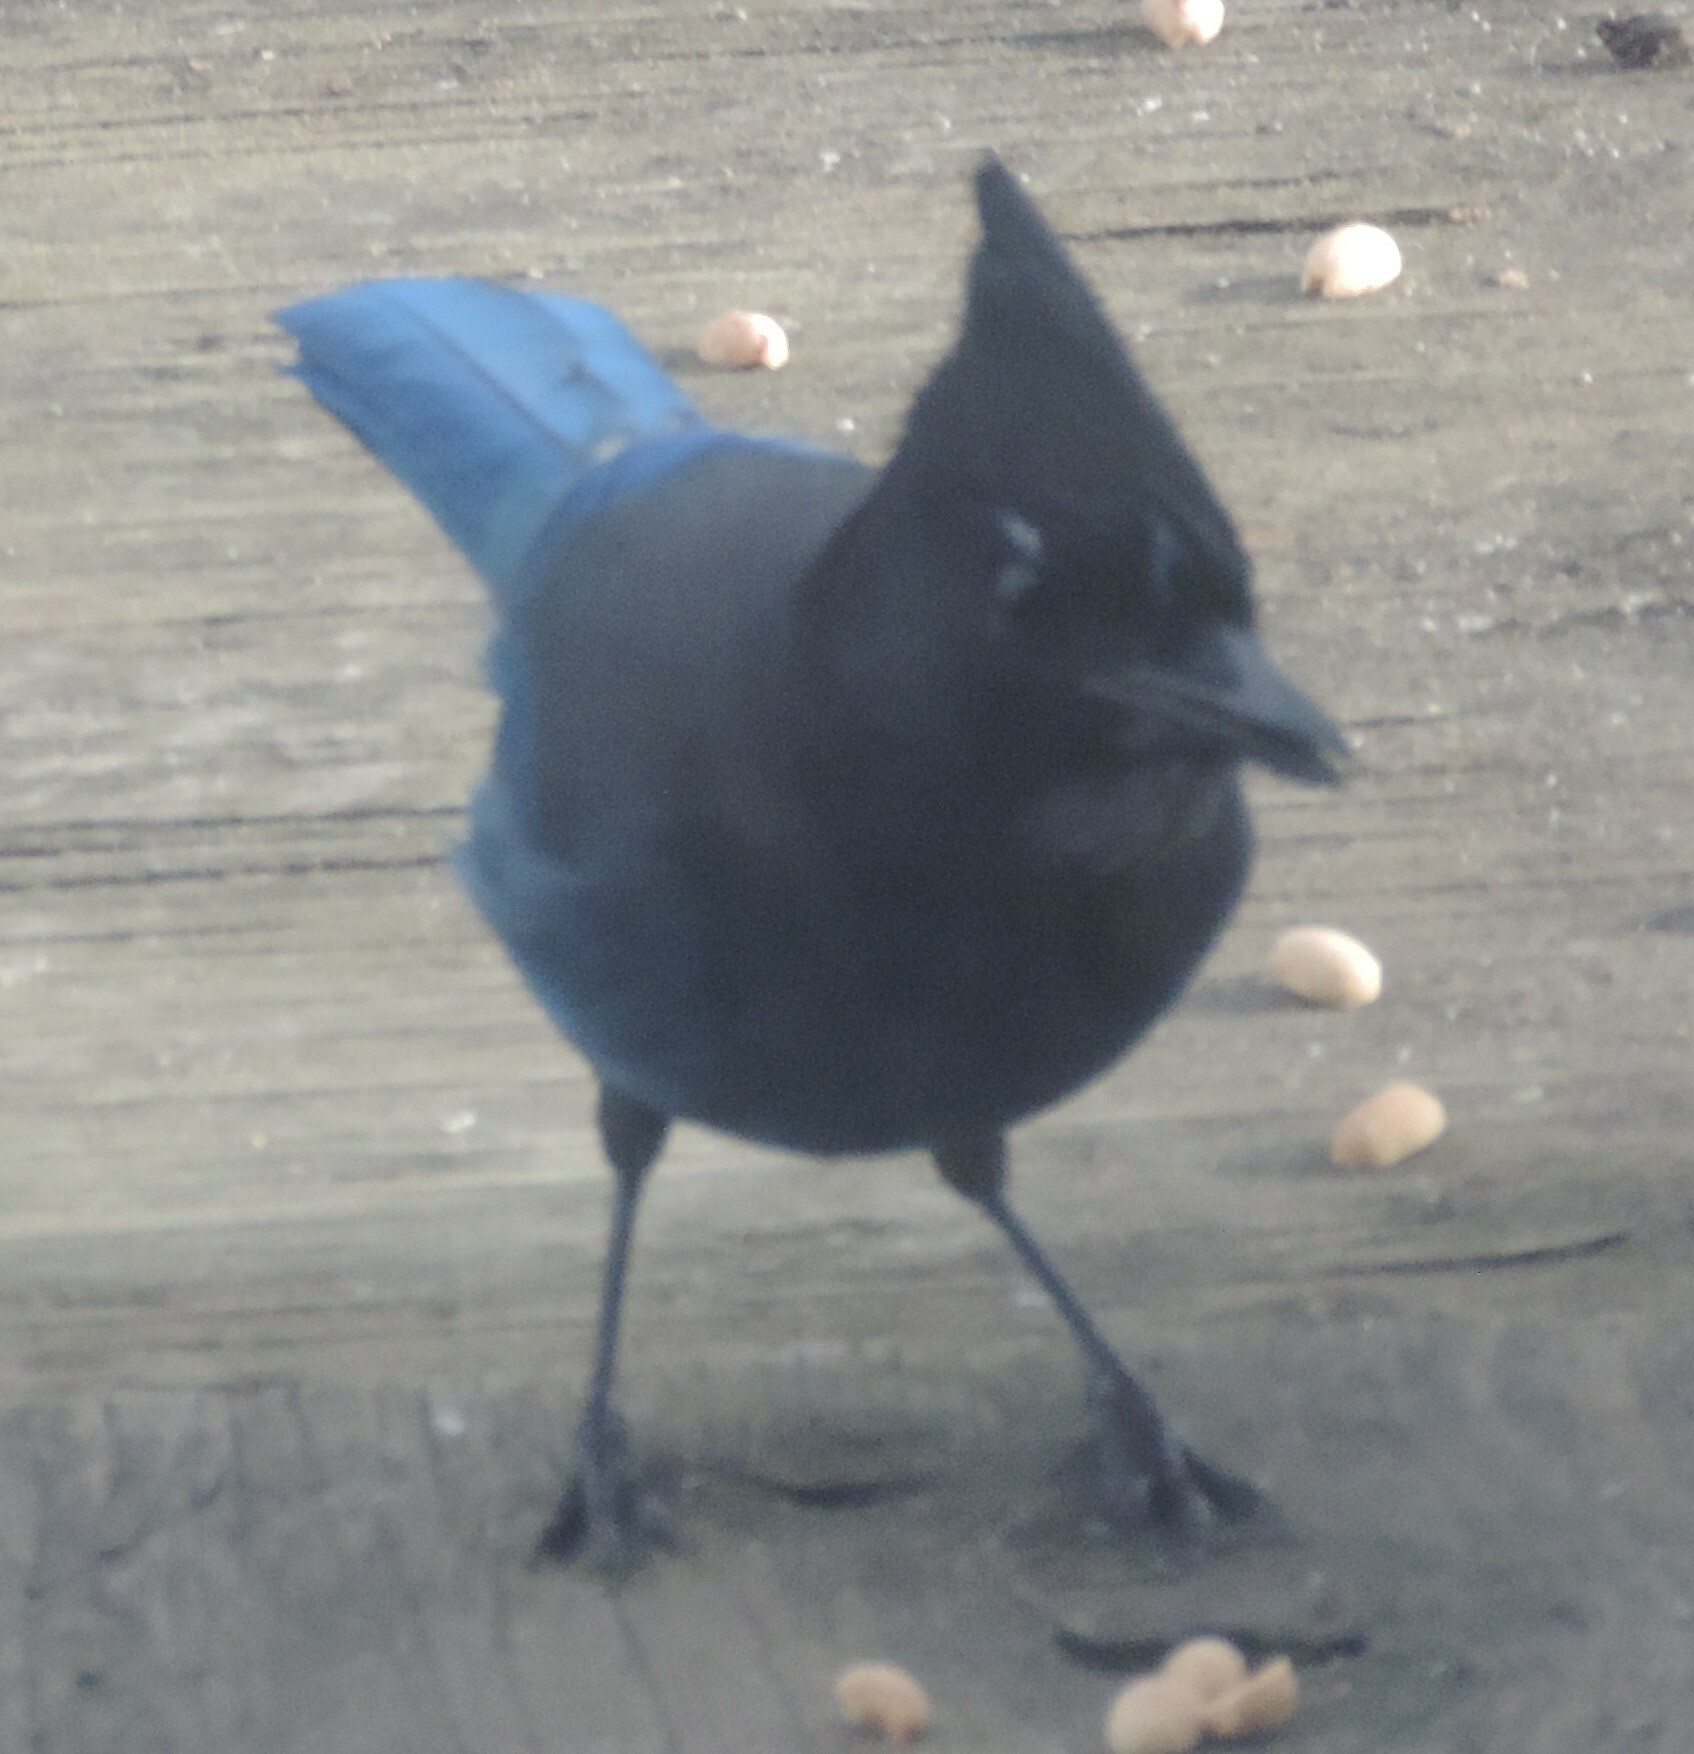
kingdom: Animalia
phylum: Chordata
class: Aves
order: Passeriformes
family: Corvidae
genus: Cyanocitta
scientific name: Cyanocitta stelleri
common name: Steller's jay
